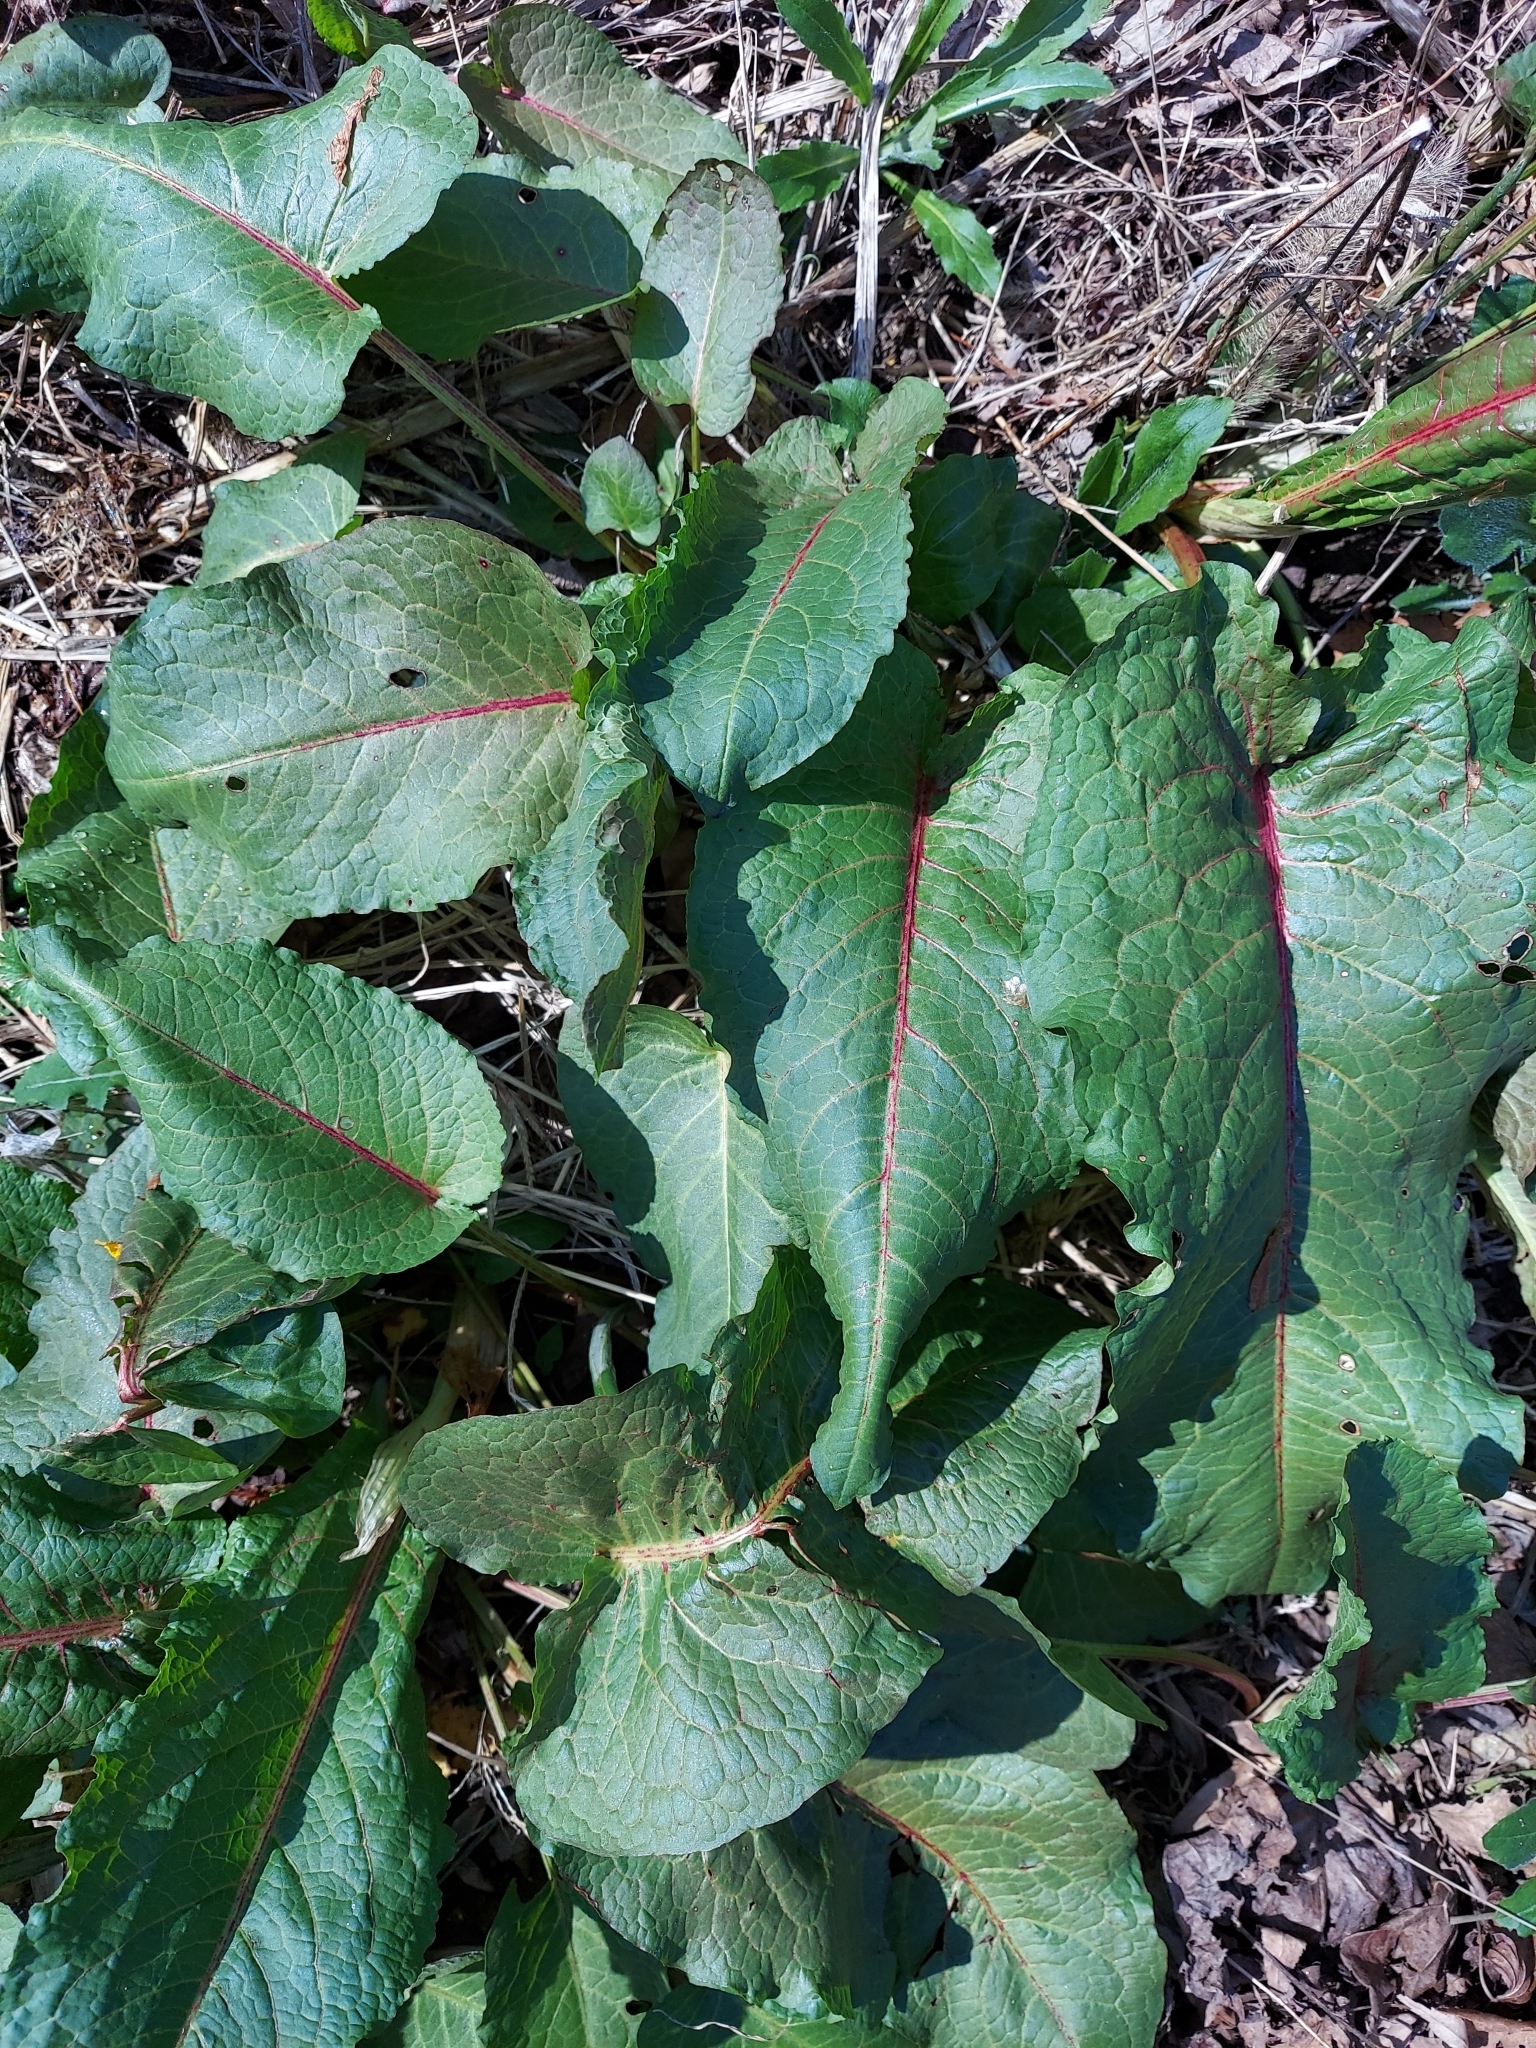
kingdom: Plantae
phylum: Tracheophyta
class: Magnoliopsida
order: Caryophyllales
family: Polygonaceae
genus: Rumex
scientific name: Rumex obtusifolius
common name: Bitter dock
